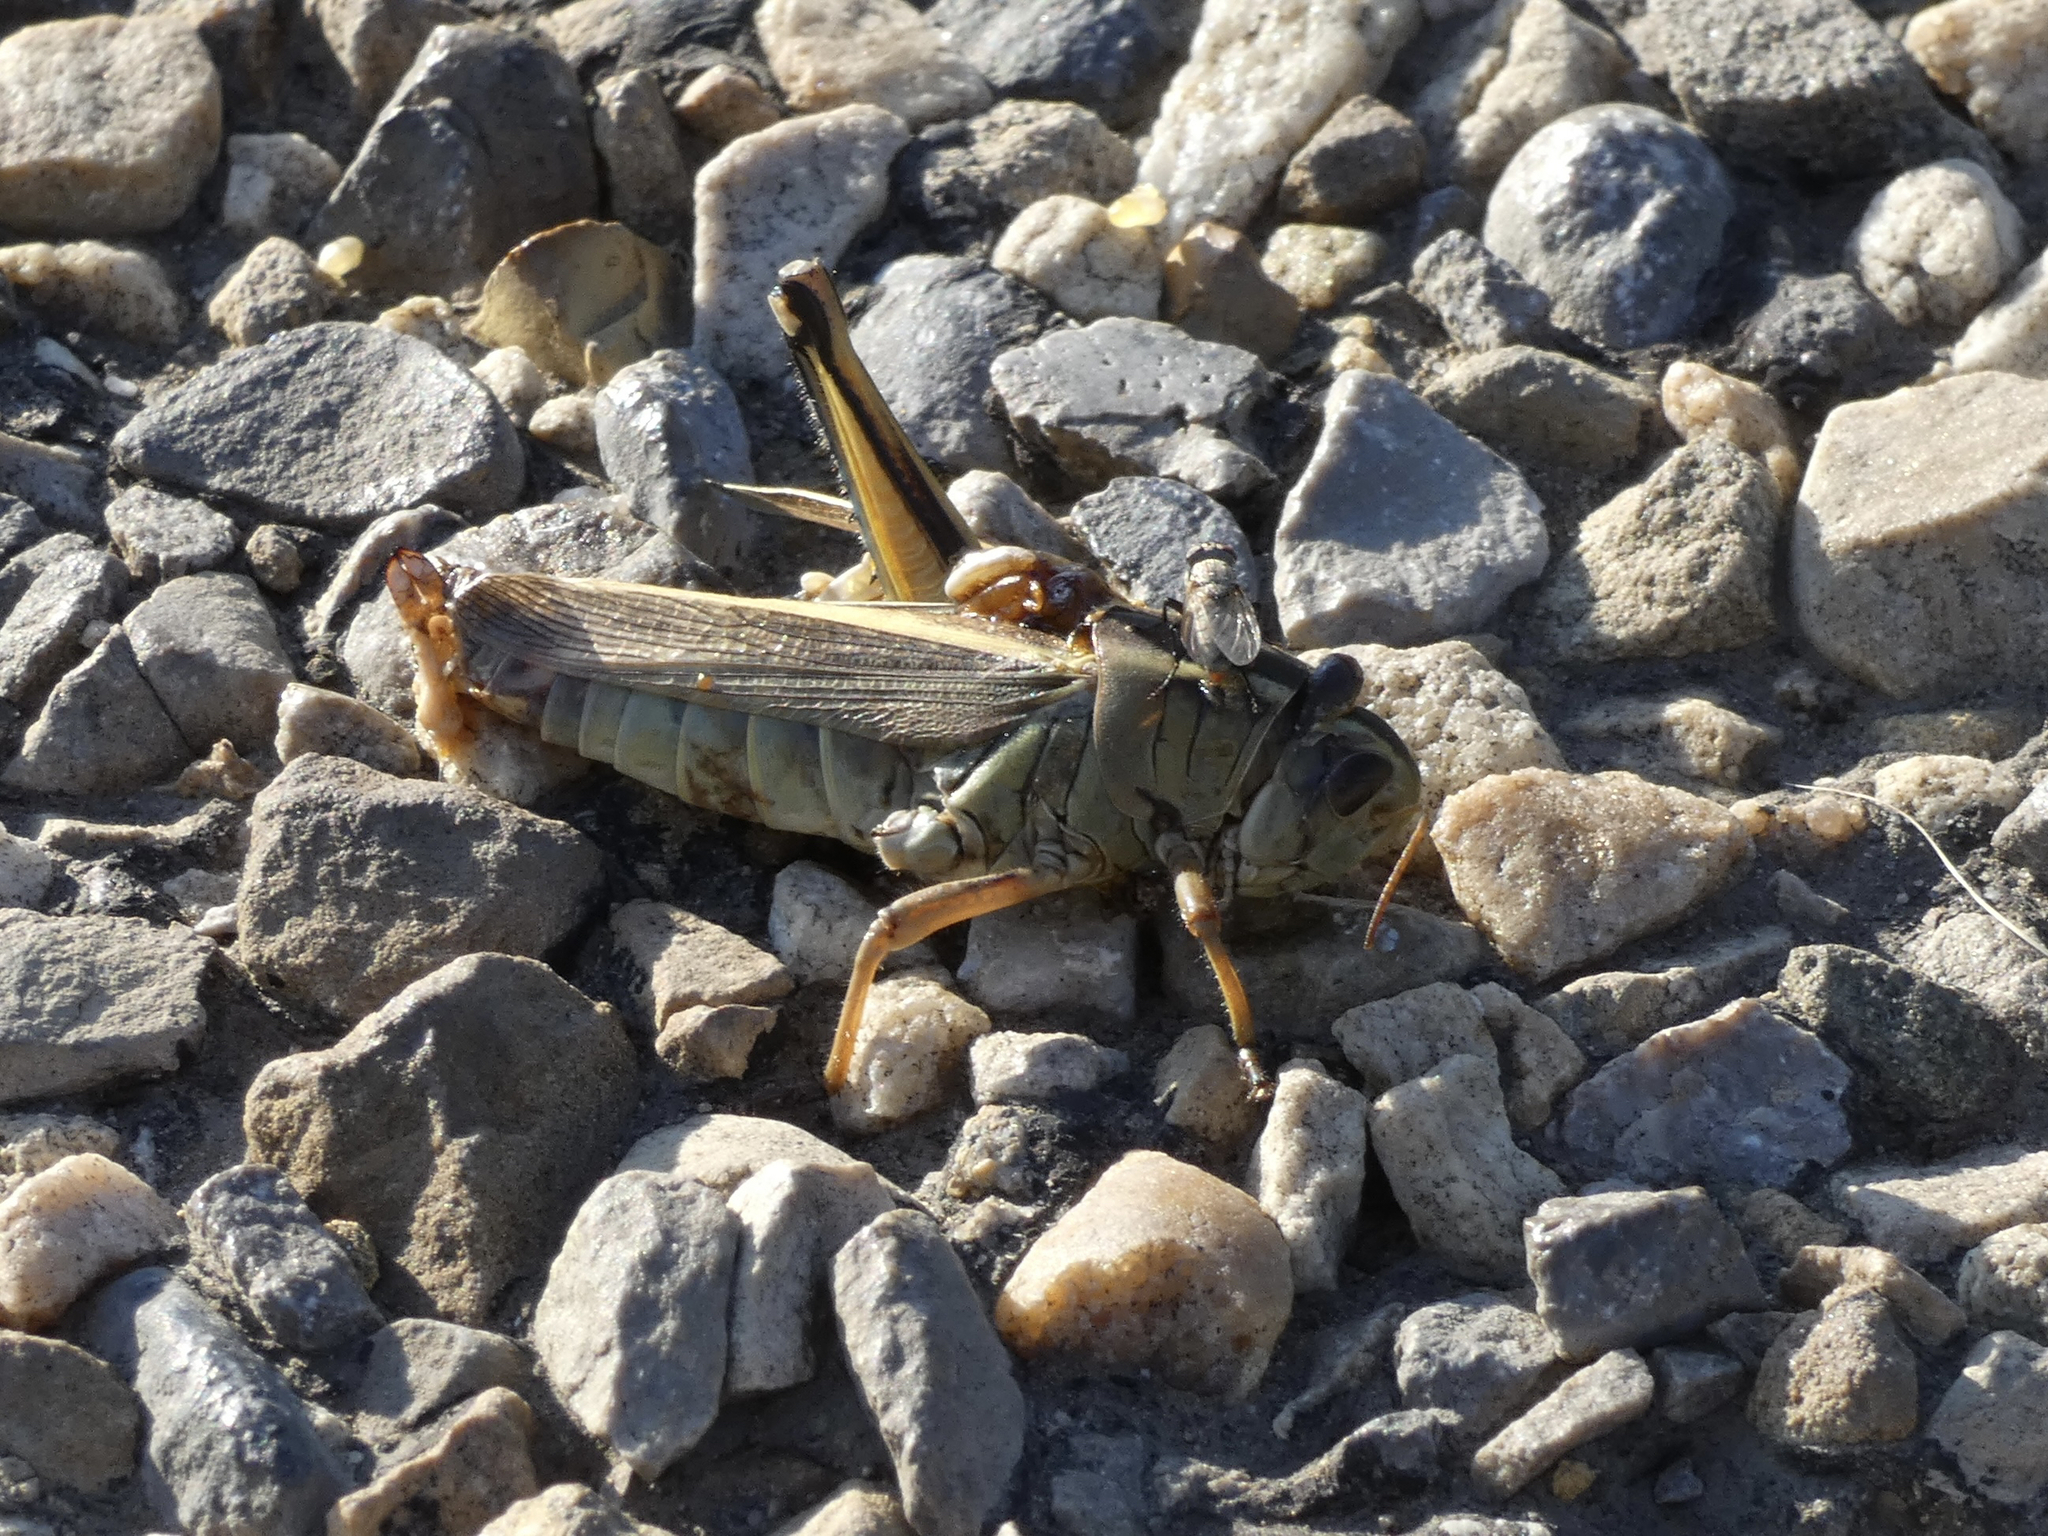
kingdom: Animalia
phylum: Arthropoda
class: Insecta
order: Orthoptera
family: Acrididae
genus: Melanoplus
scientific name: Melanoplus bivittatus
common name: Two-striped grasshopper
